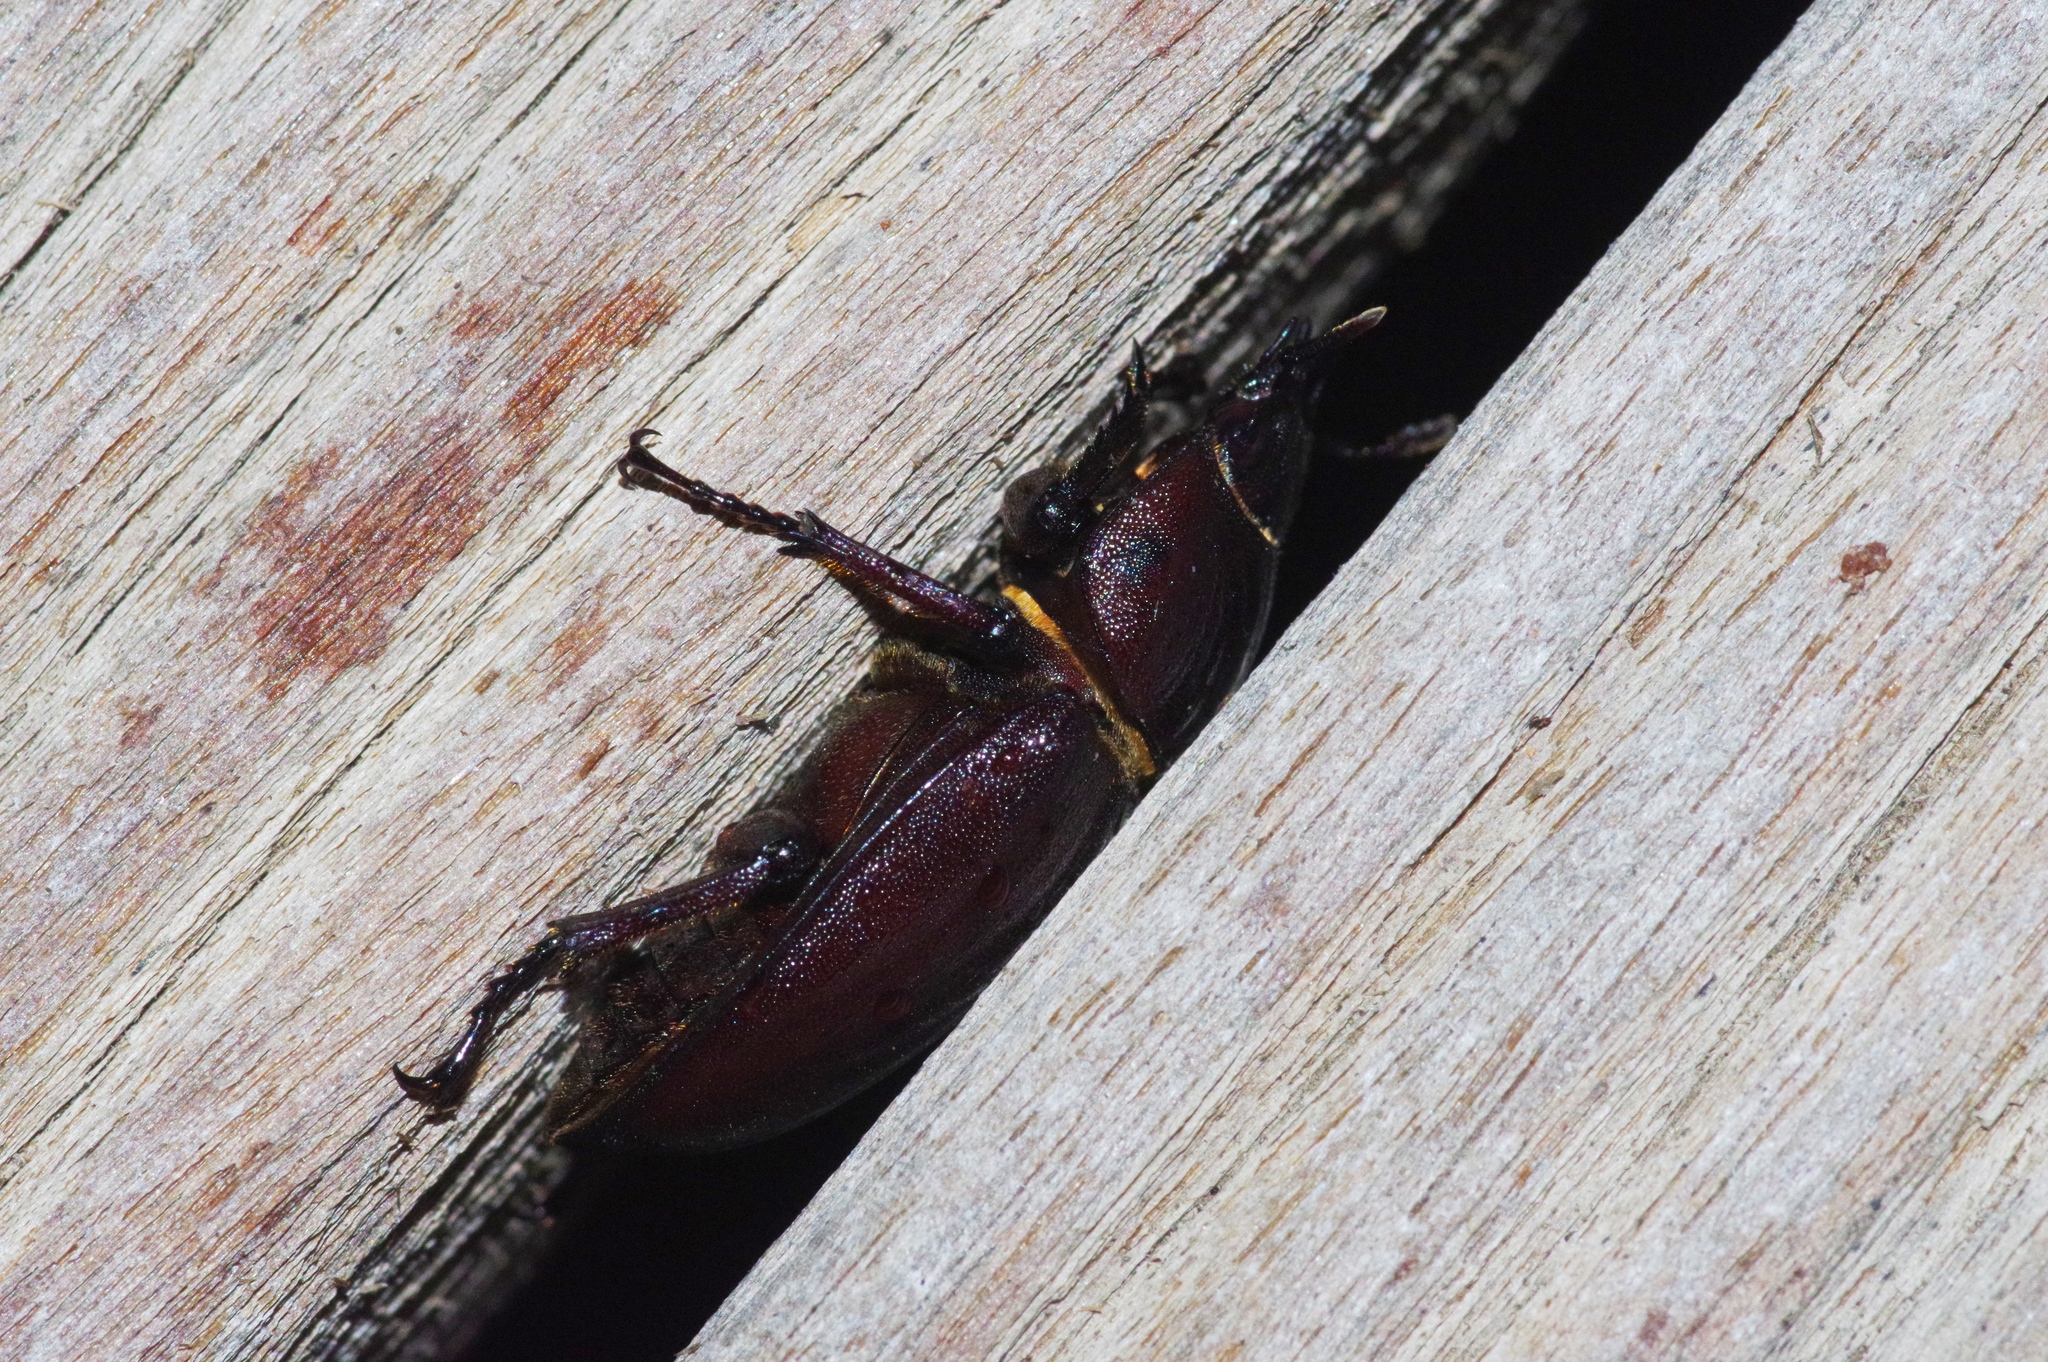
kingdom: Animalia
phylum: Arthropoda
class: Insecta
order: Coleoptera
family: Lucanidae
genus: Prosopocoilus
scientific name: Prosopocoilus dissimilis
